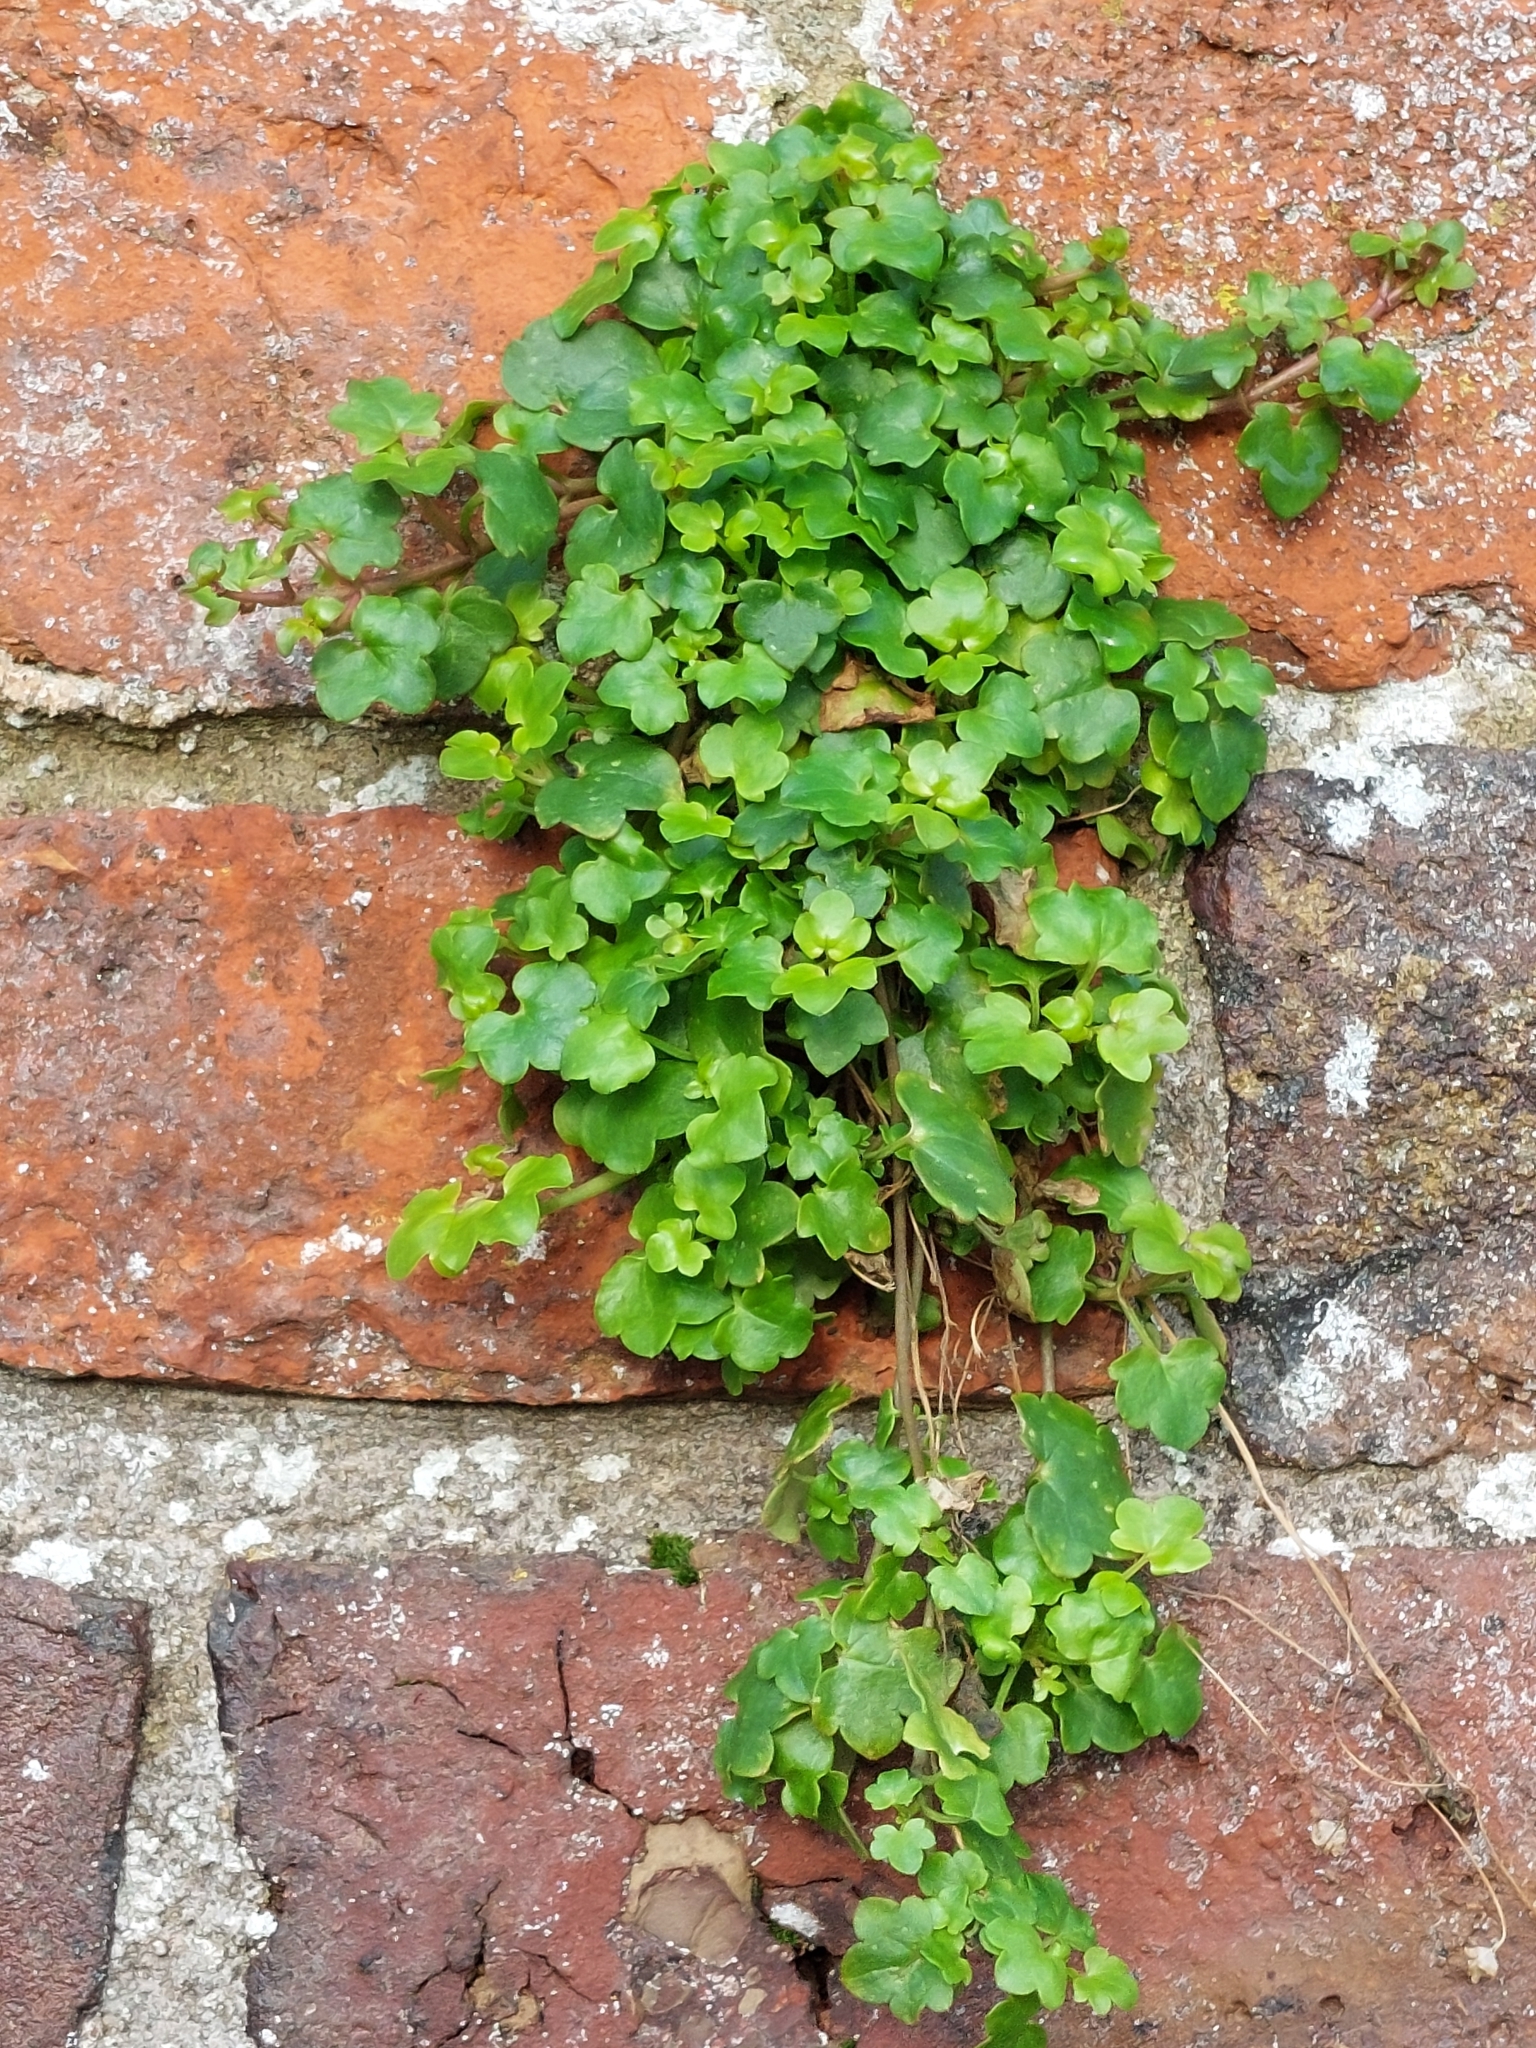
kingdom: Plantae
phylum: Tracheophyta
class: Magnoliopsida
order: Lamiales
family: Plantaginaceae
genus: Cymbalaria
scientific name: Cymbalaria muralis
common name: Ivy-leaved toadflax
